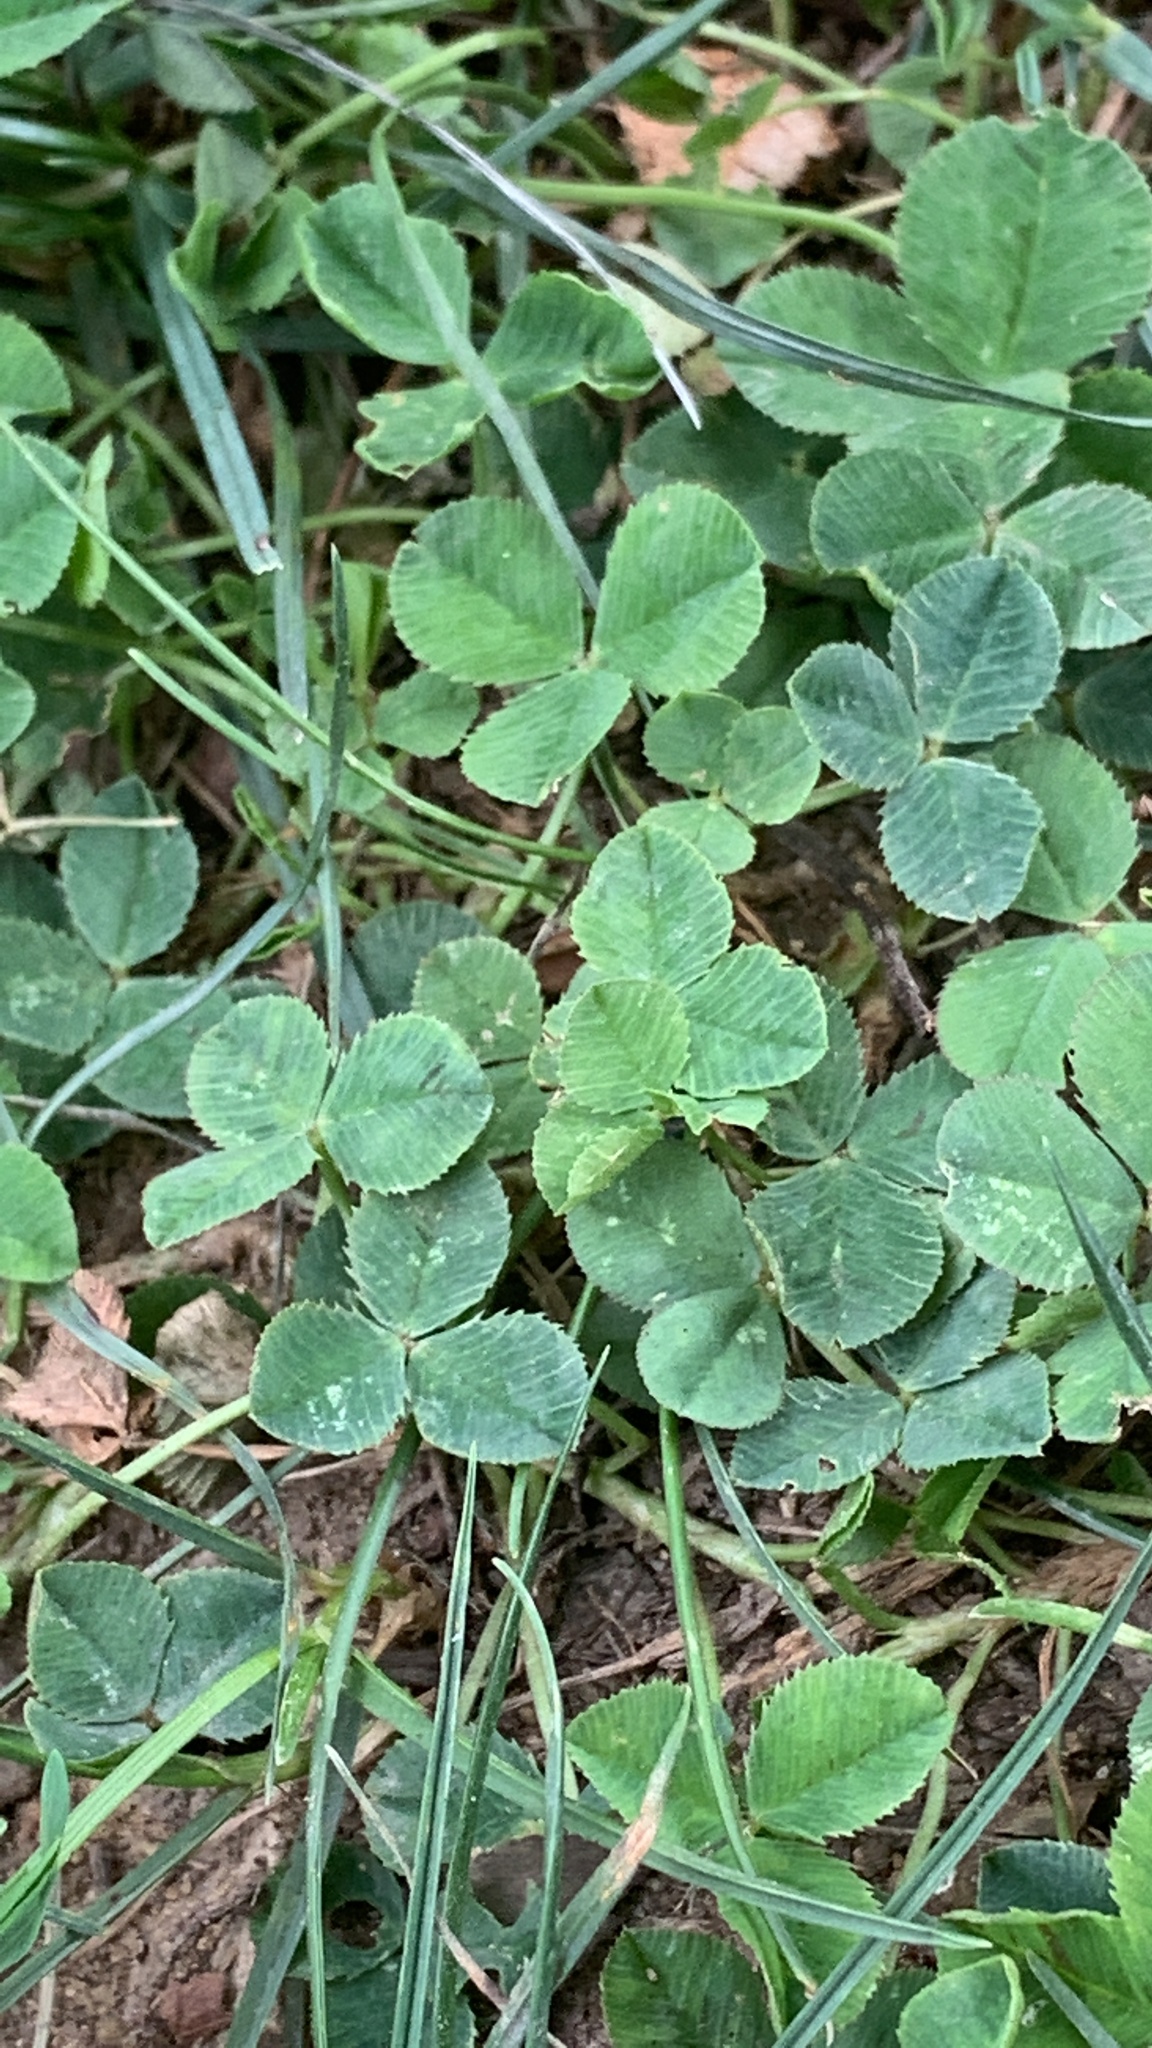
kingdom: Plantae
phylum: Tracheophyta
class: Magnoliopsida
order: Fabales
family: Fabaceae
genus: Trifolium
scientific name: Trifolium repens
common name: White clover
